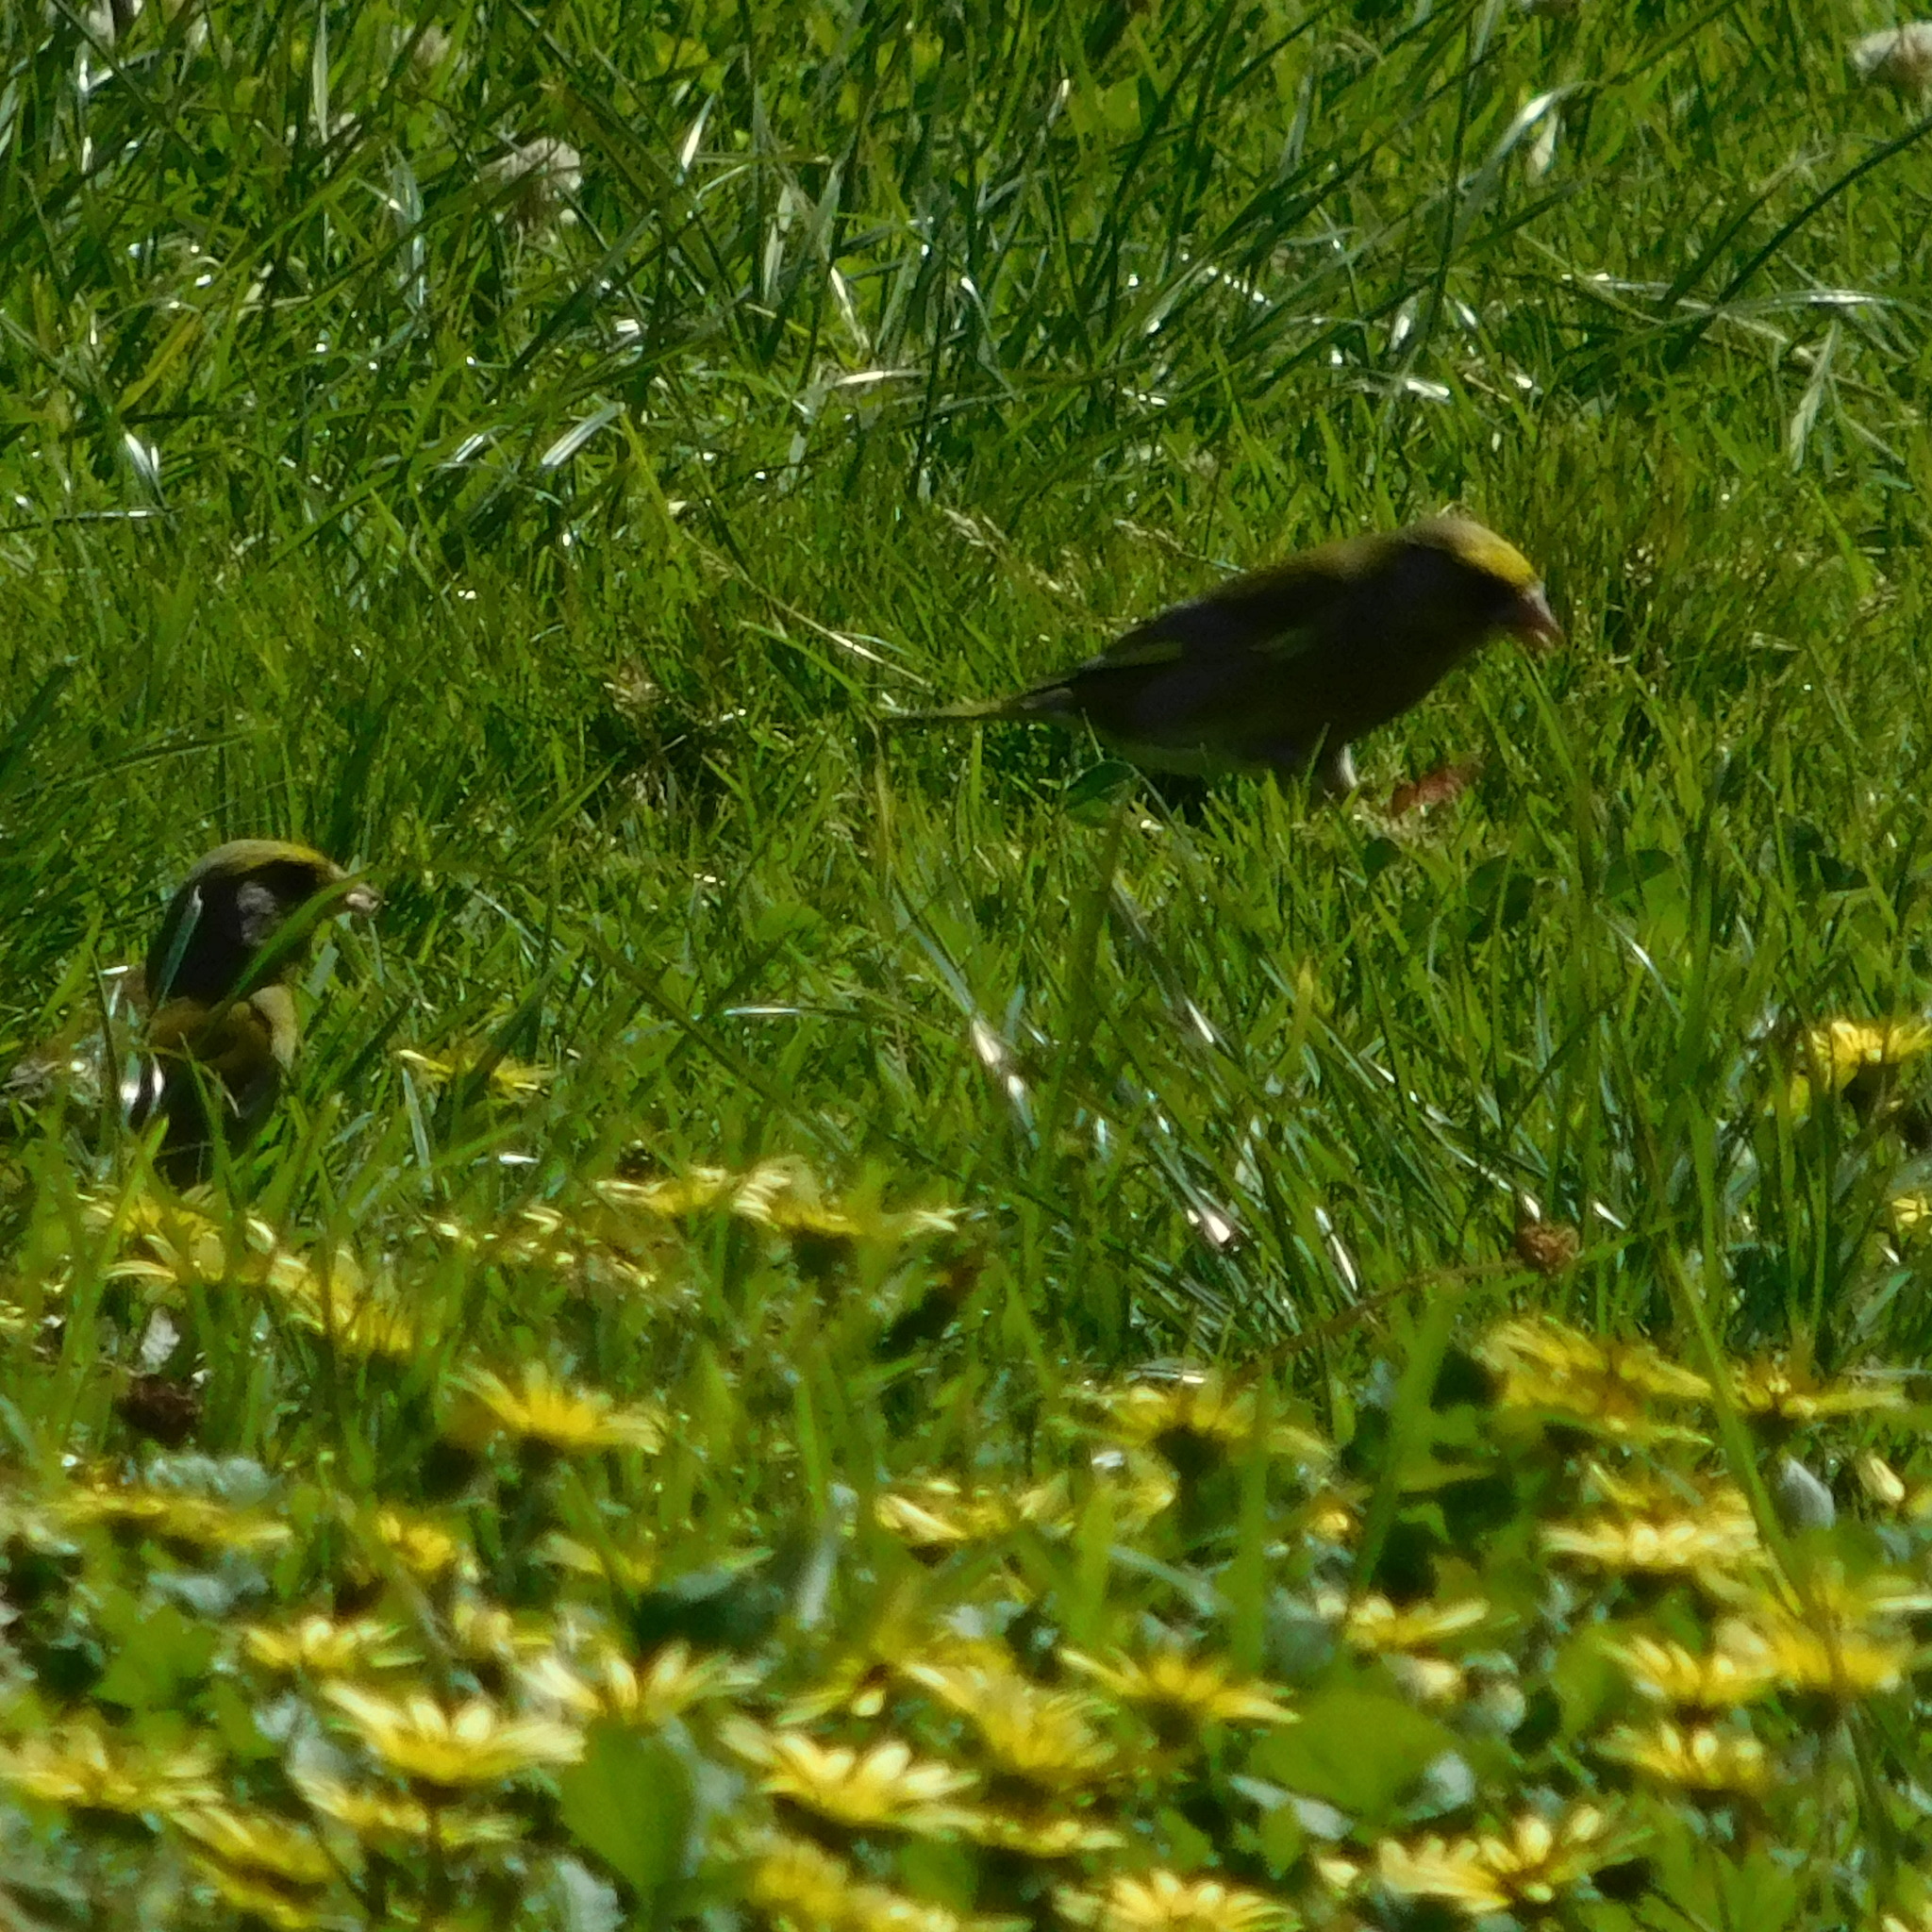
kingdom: Plantae
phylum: Tracheophyta
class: Liliopsida
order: Poales
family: Poaceae
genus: Chloris
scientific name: Chloris chloris
